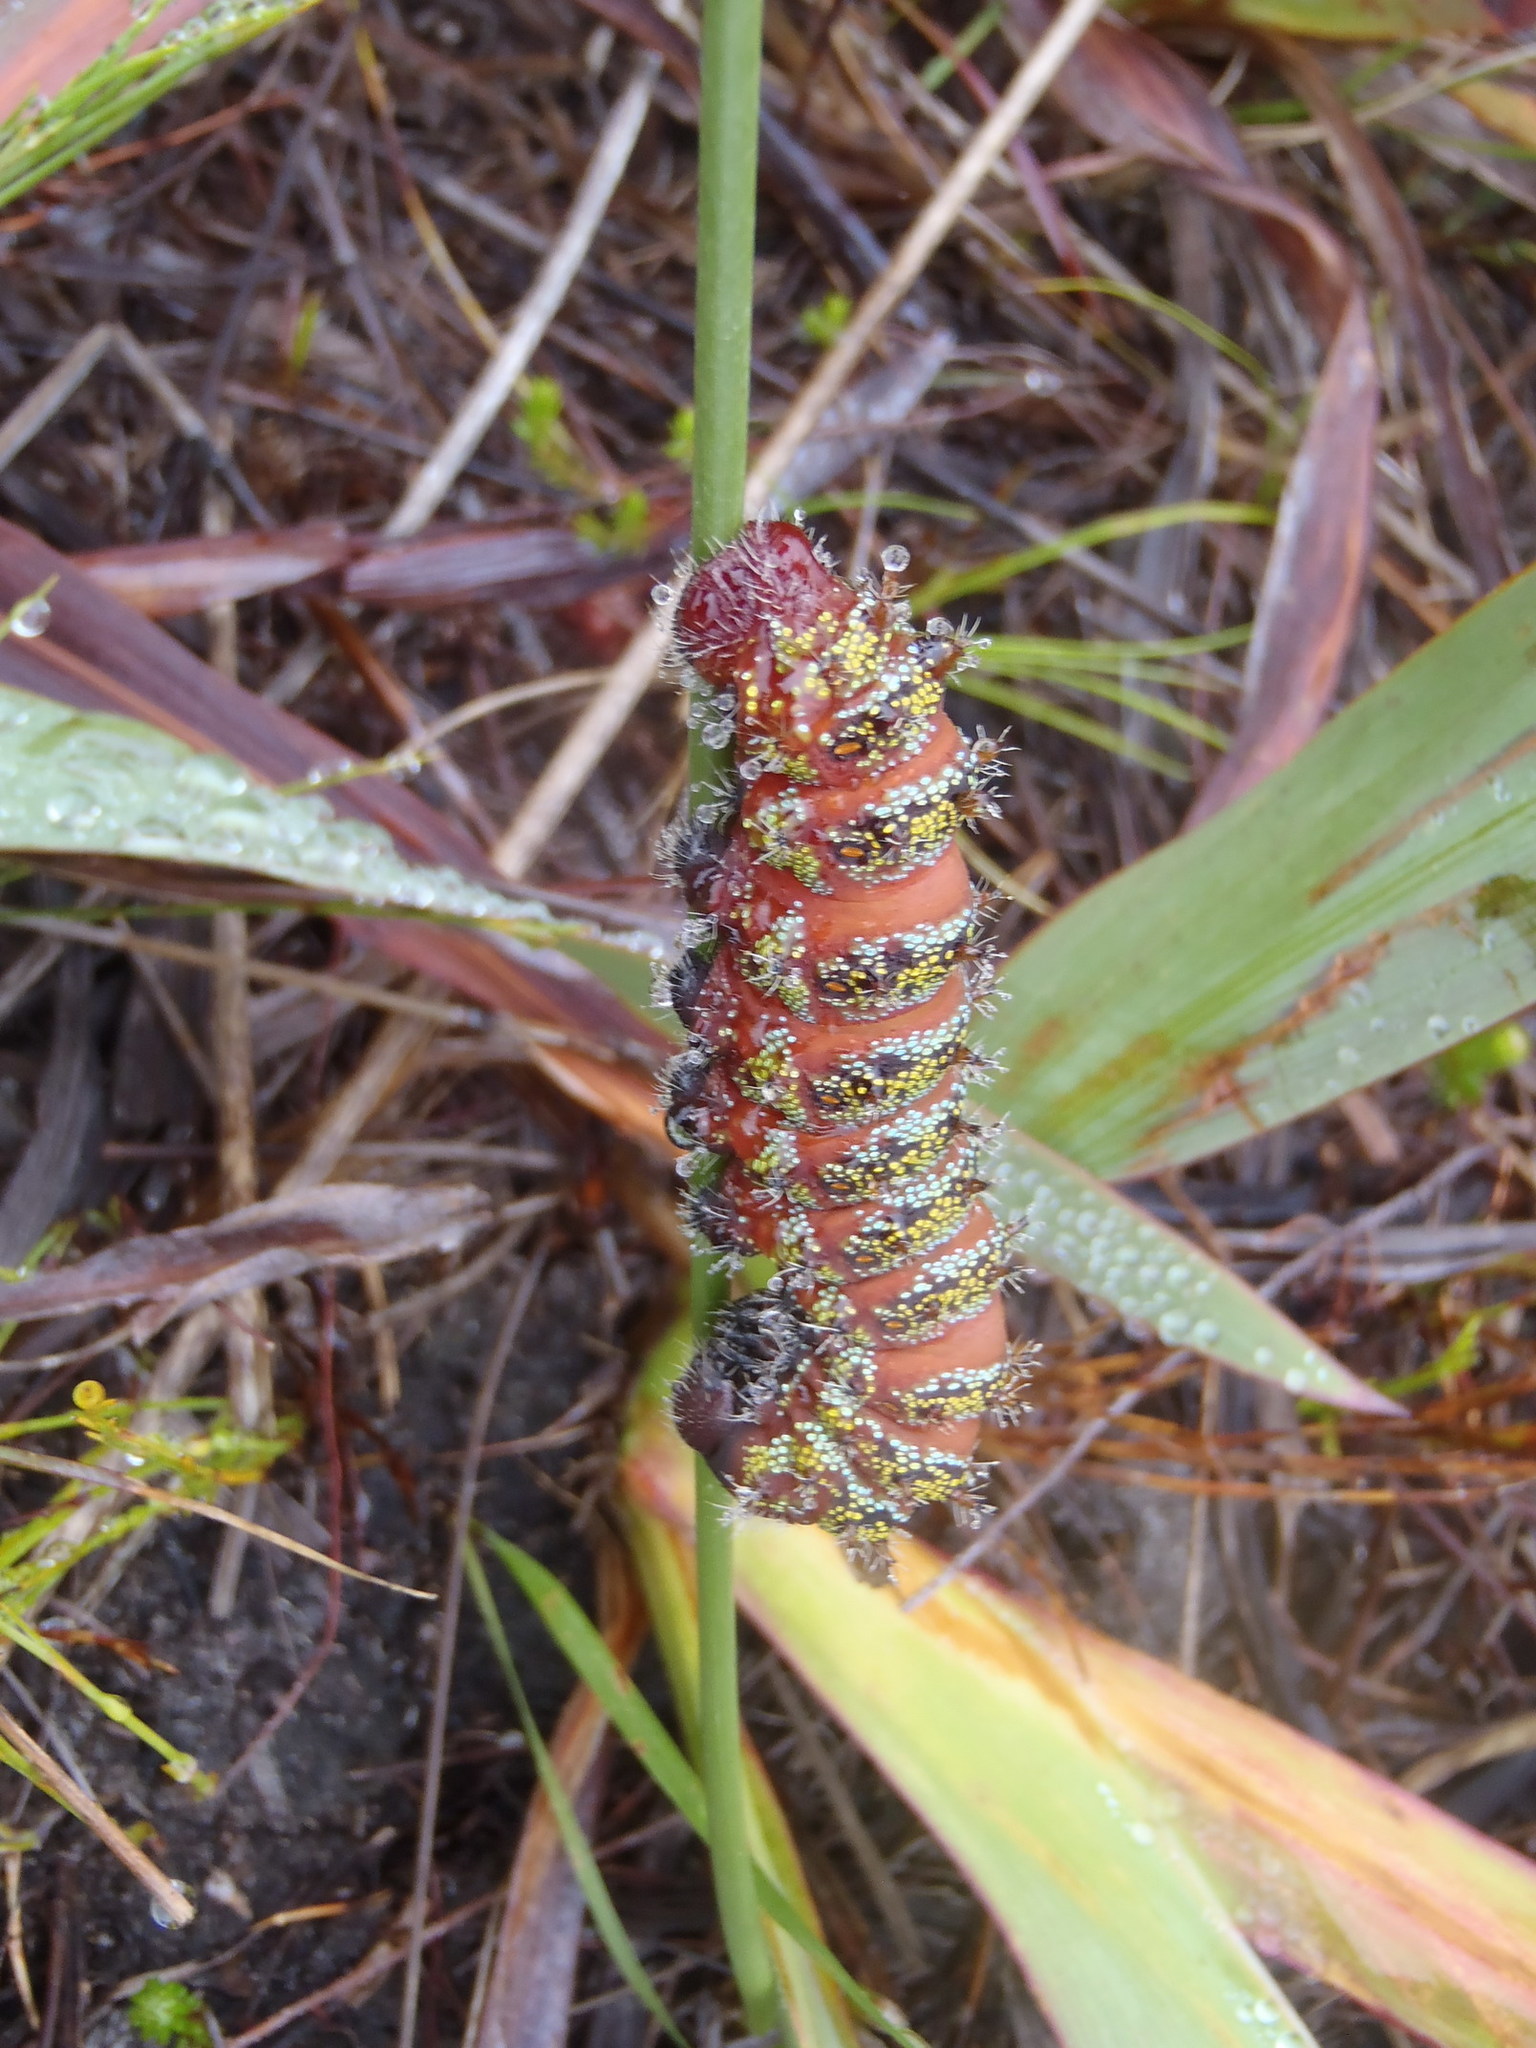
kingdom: Animalia
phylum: Arthropoda
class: Insecta
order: Lepidoptera
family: Saturniidae
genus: Nudaurelia
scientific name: Nudaurelia cytherea
